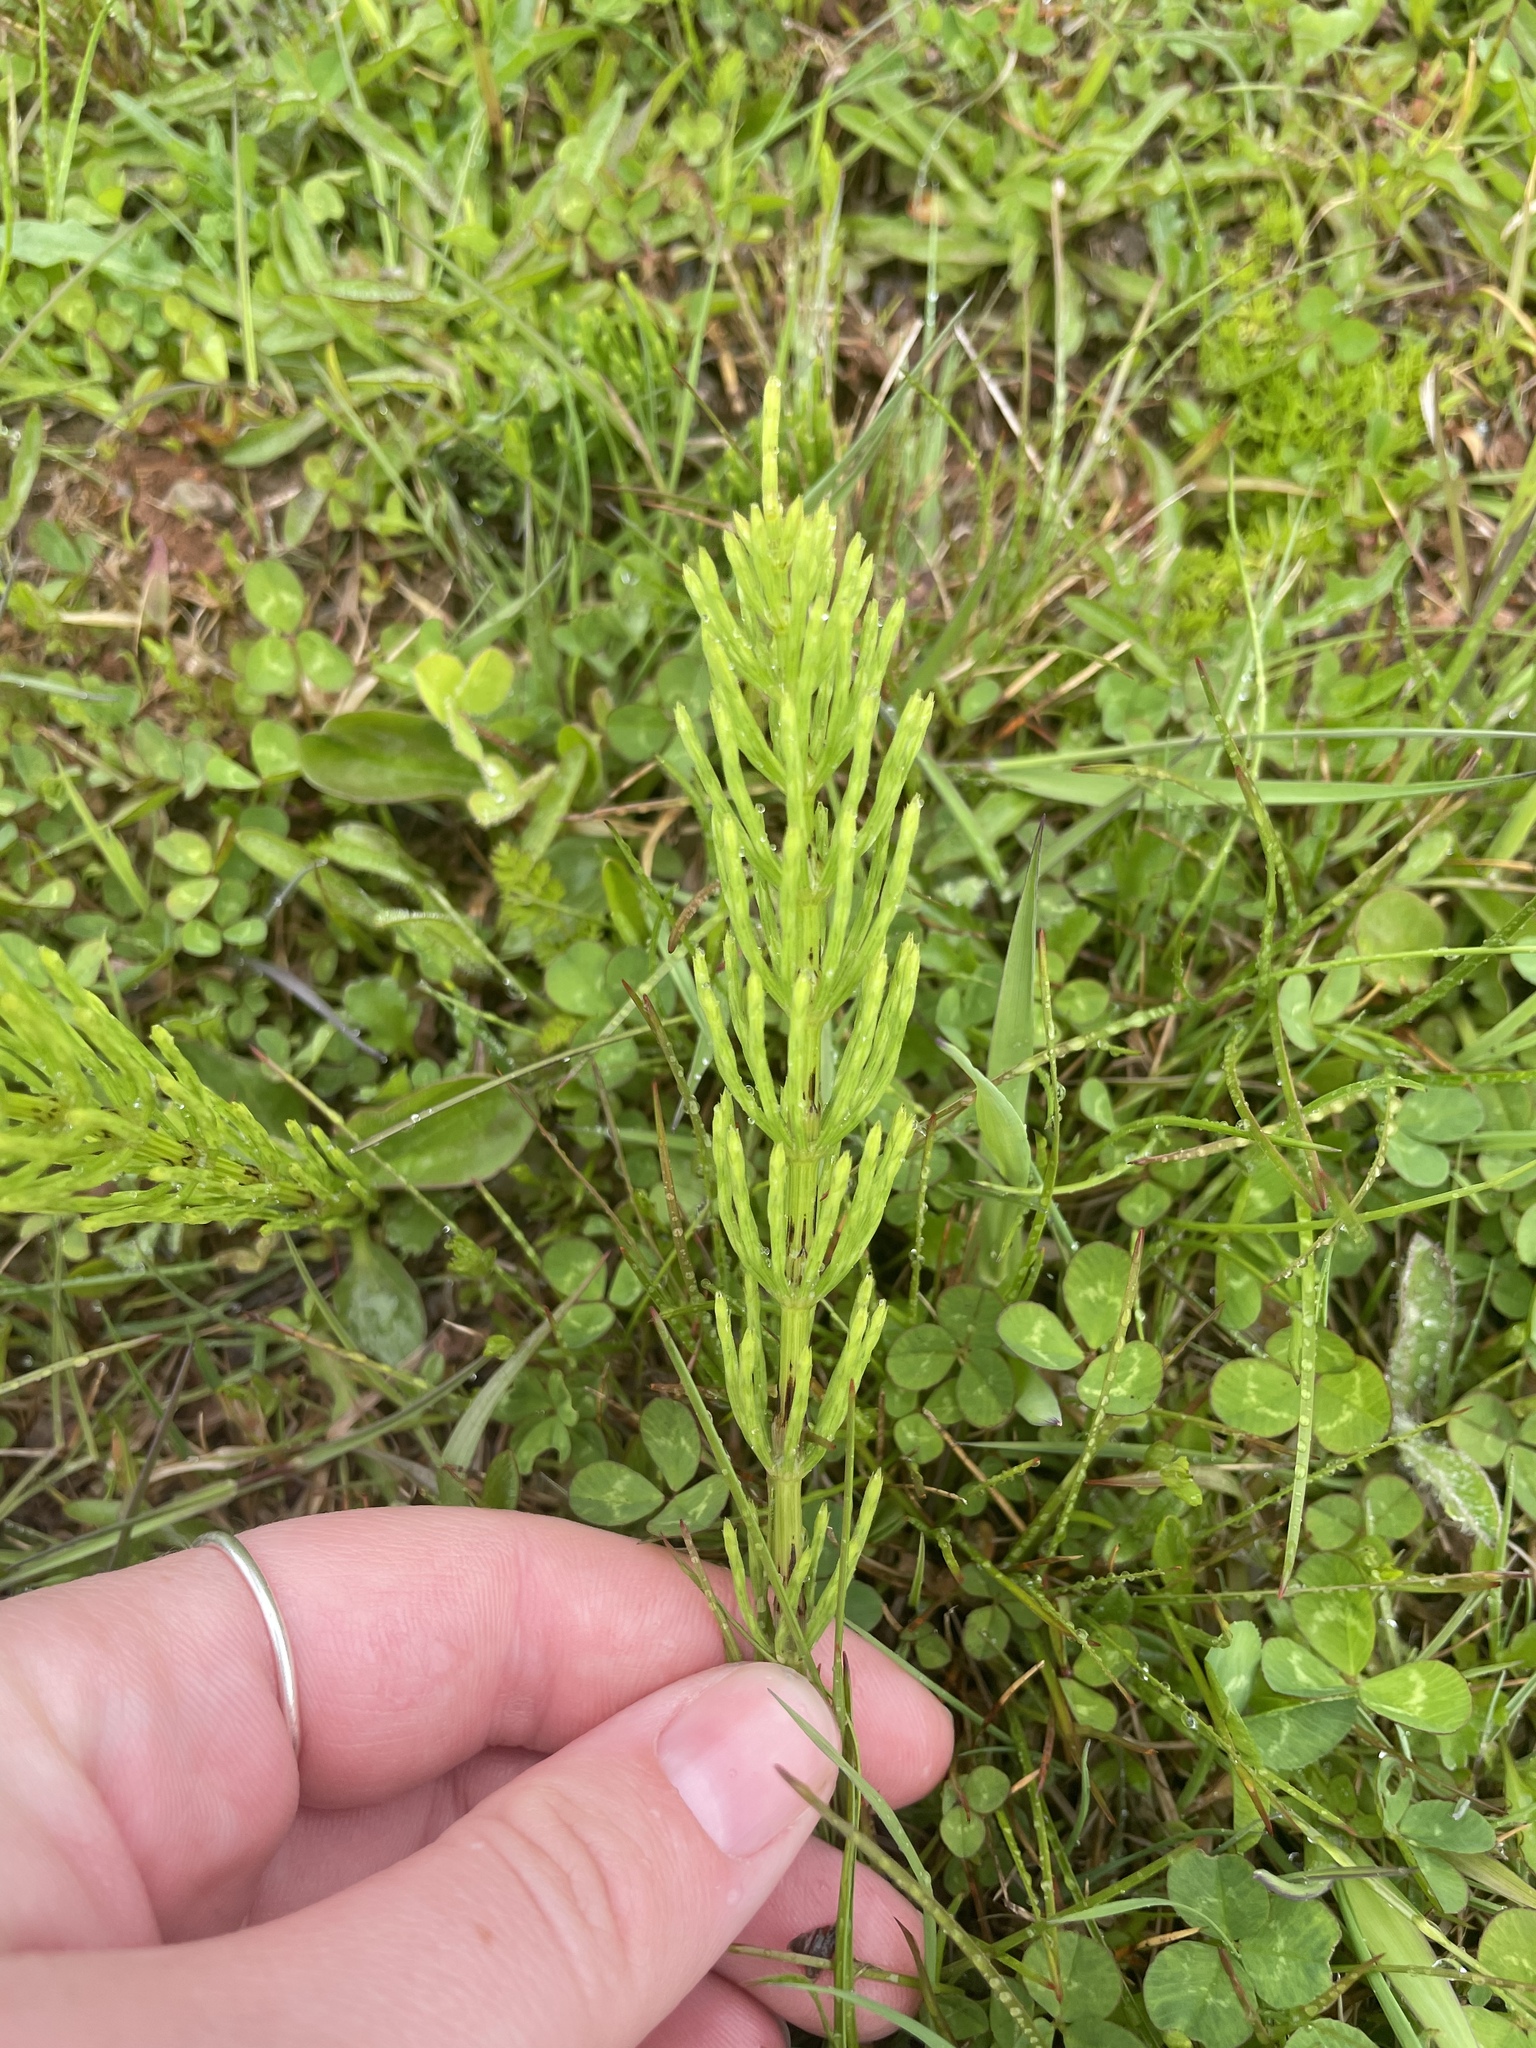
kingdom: Plantae
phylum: Tracheophyta
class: Polypodiopsida
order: Equisetales
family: Equisetaceae
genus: Equisetum
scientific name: Equisetum arvense
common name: Field horsetail
